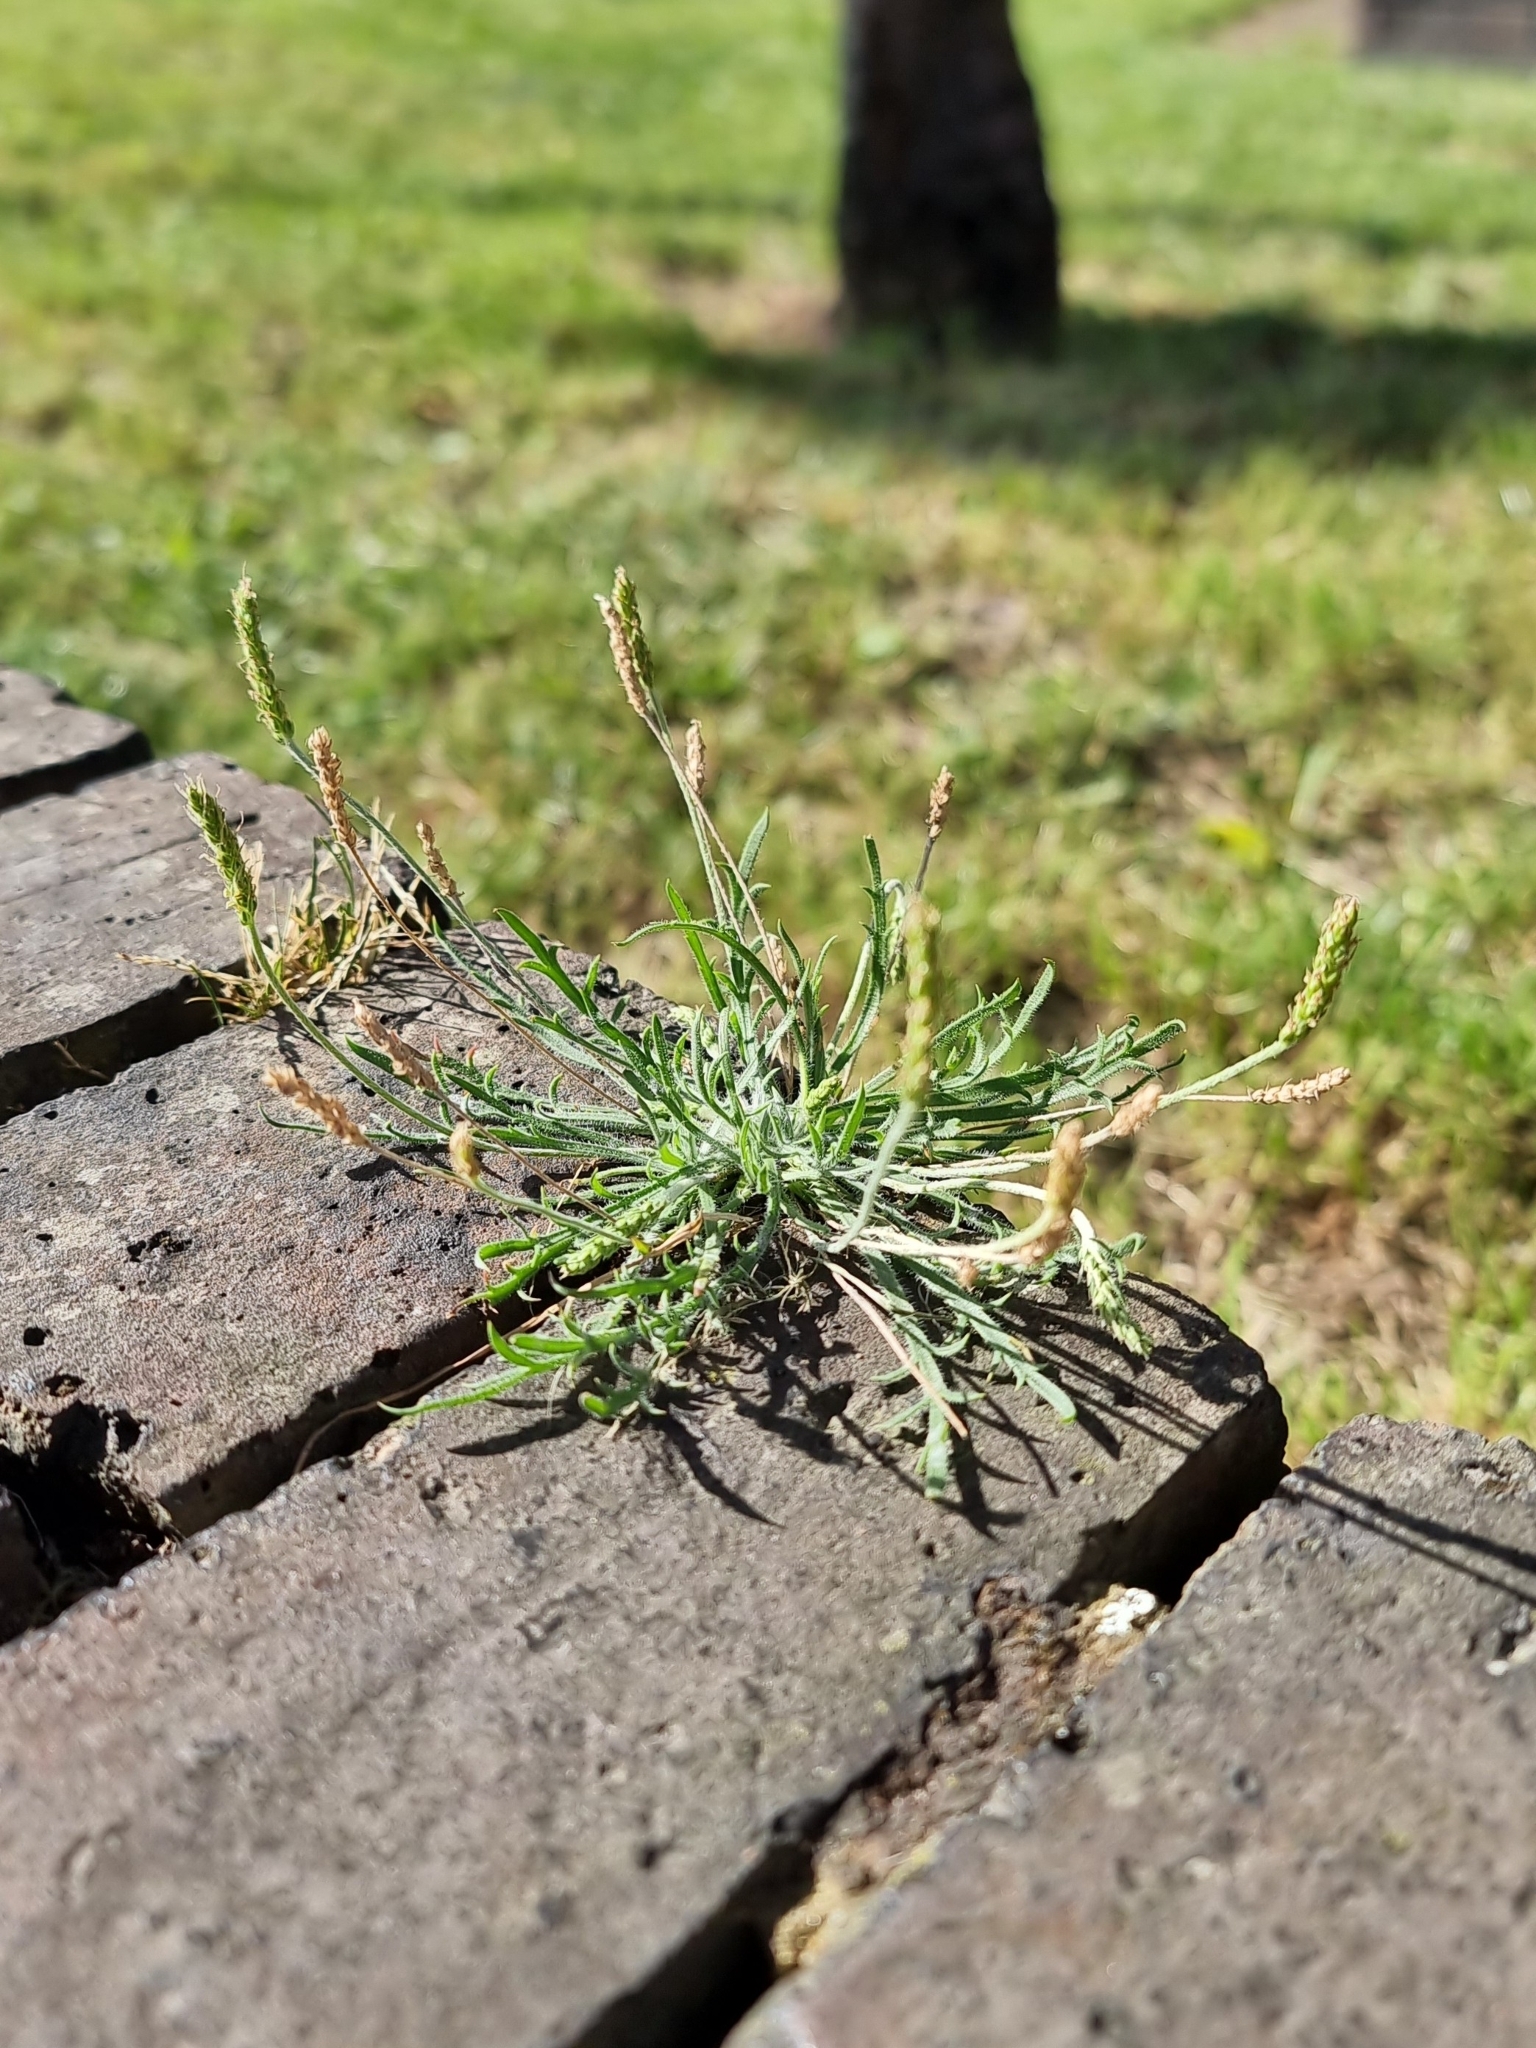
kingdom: Plantae
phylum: Tracheophyta
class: Magnoliopsida
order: Lamiales
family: Plantaginaceae
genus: Plantago
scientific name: Plantago coronopus
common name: Buck's-horn plantain
